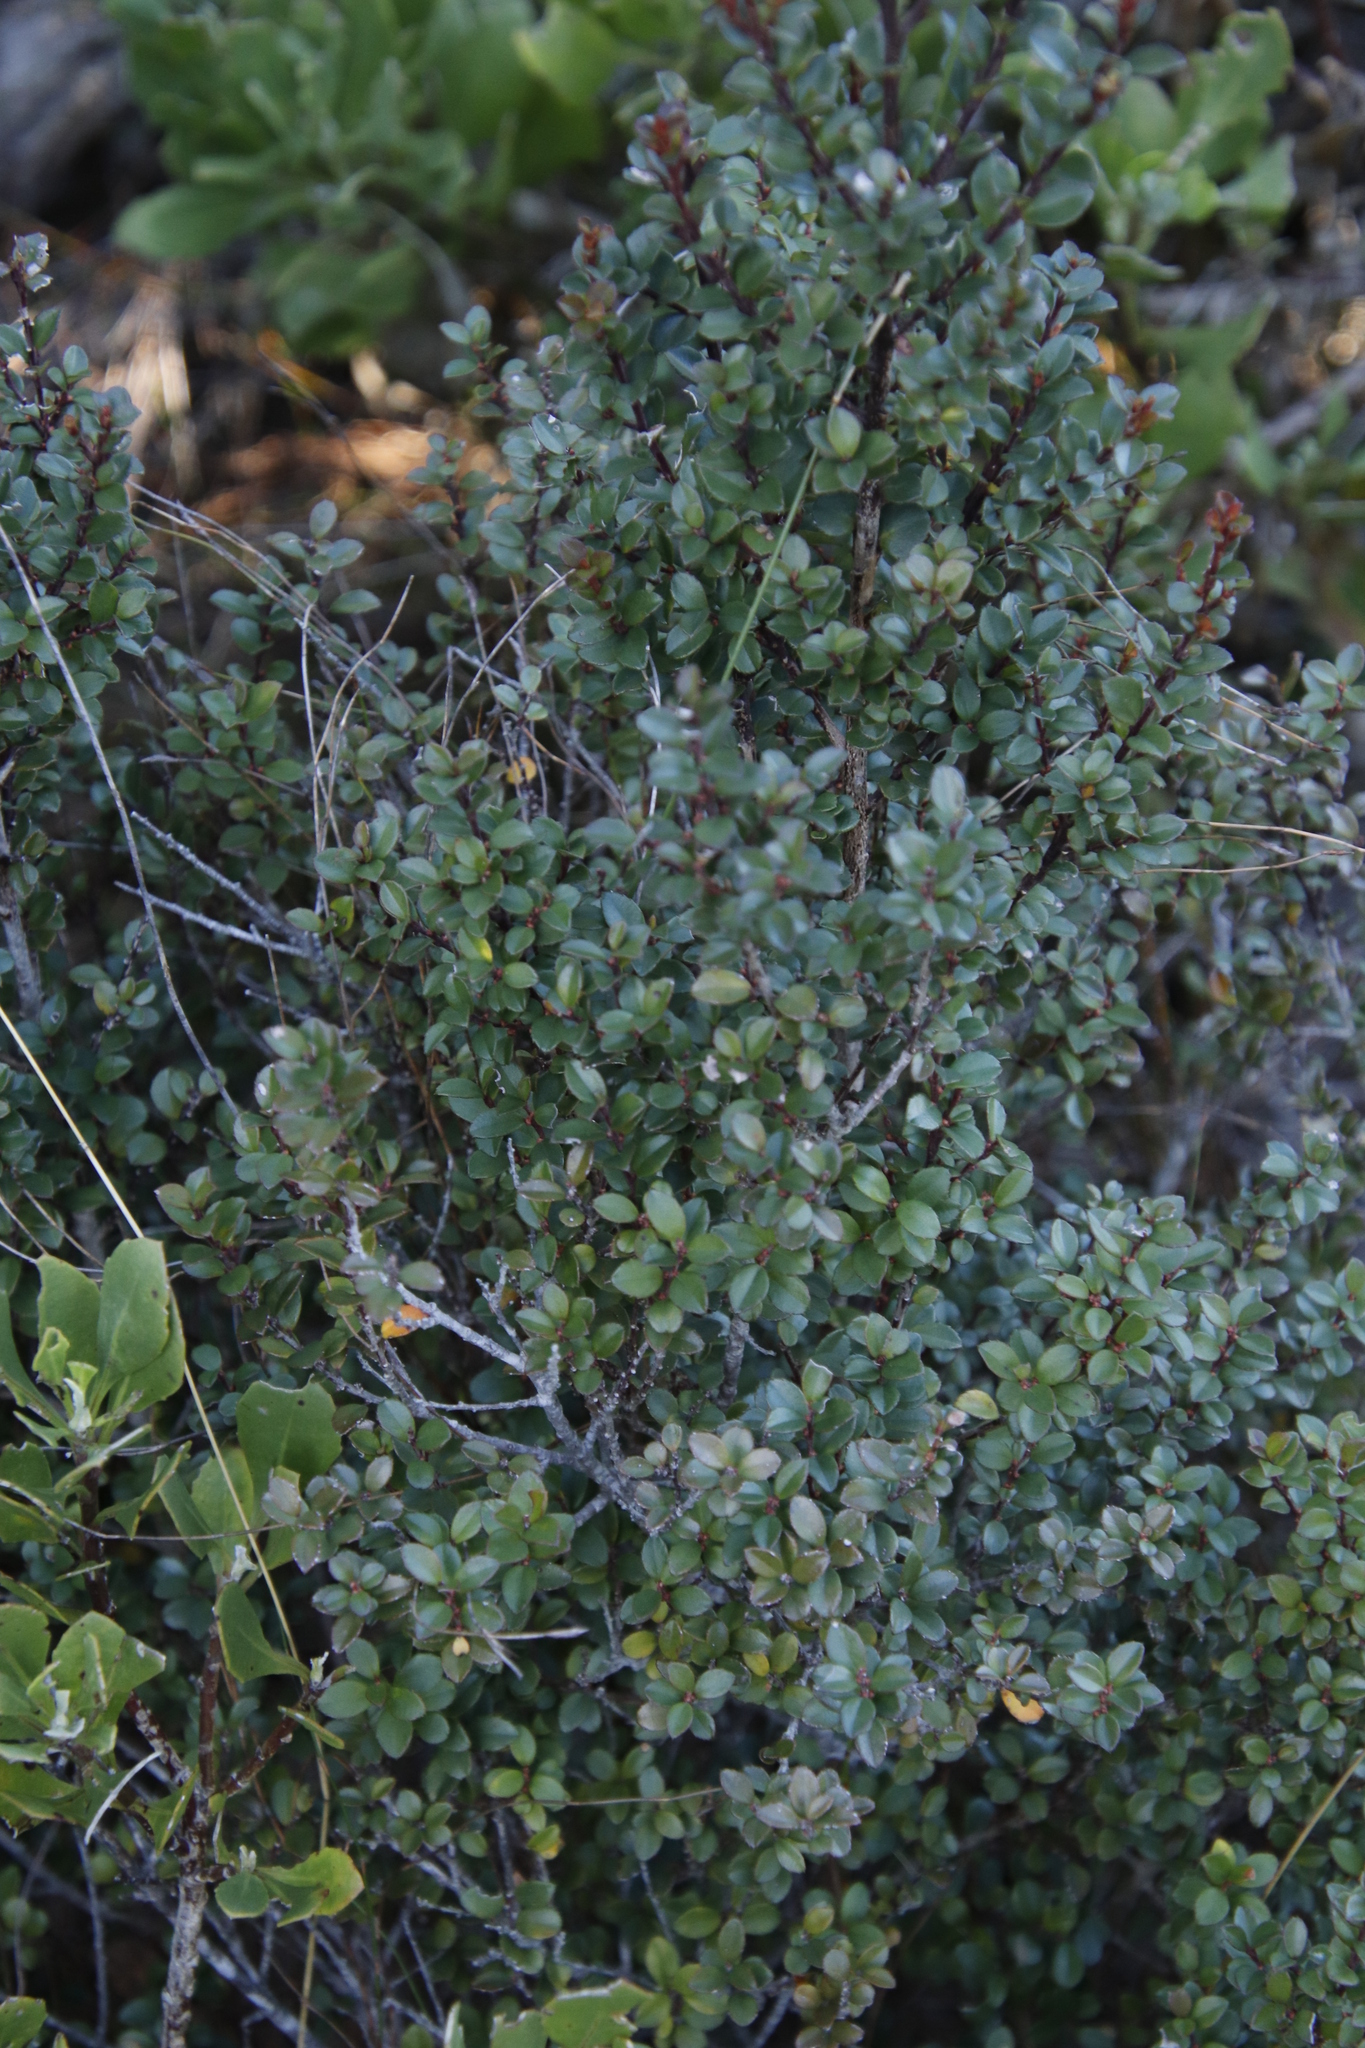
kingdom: Plantae
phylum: Tracheophyta
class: Magnoliopsida
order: Ericales
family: Primulaceae
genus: Myrsine
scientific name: Myrsine africana
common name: African-boxwood
